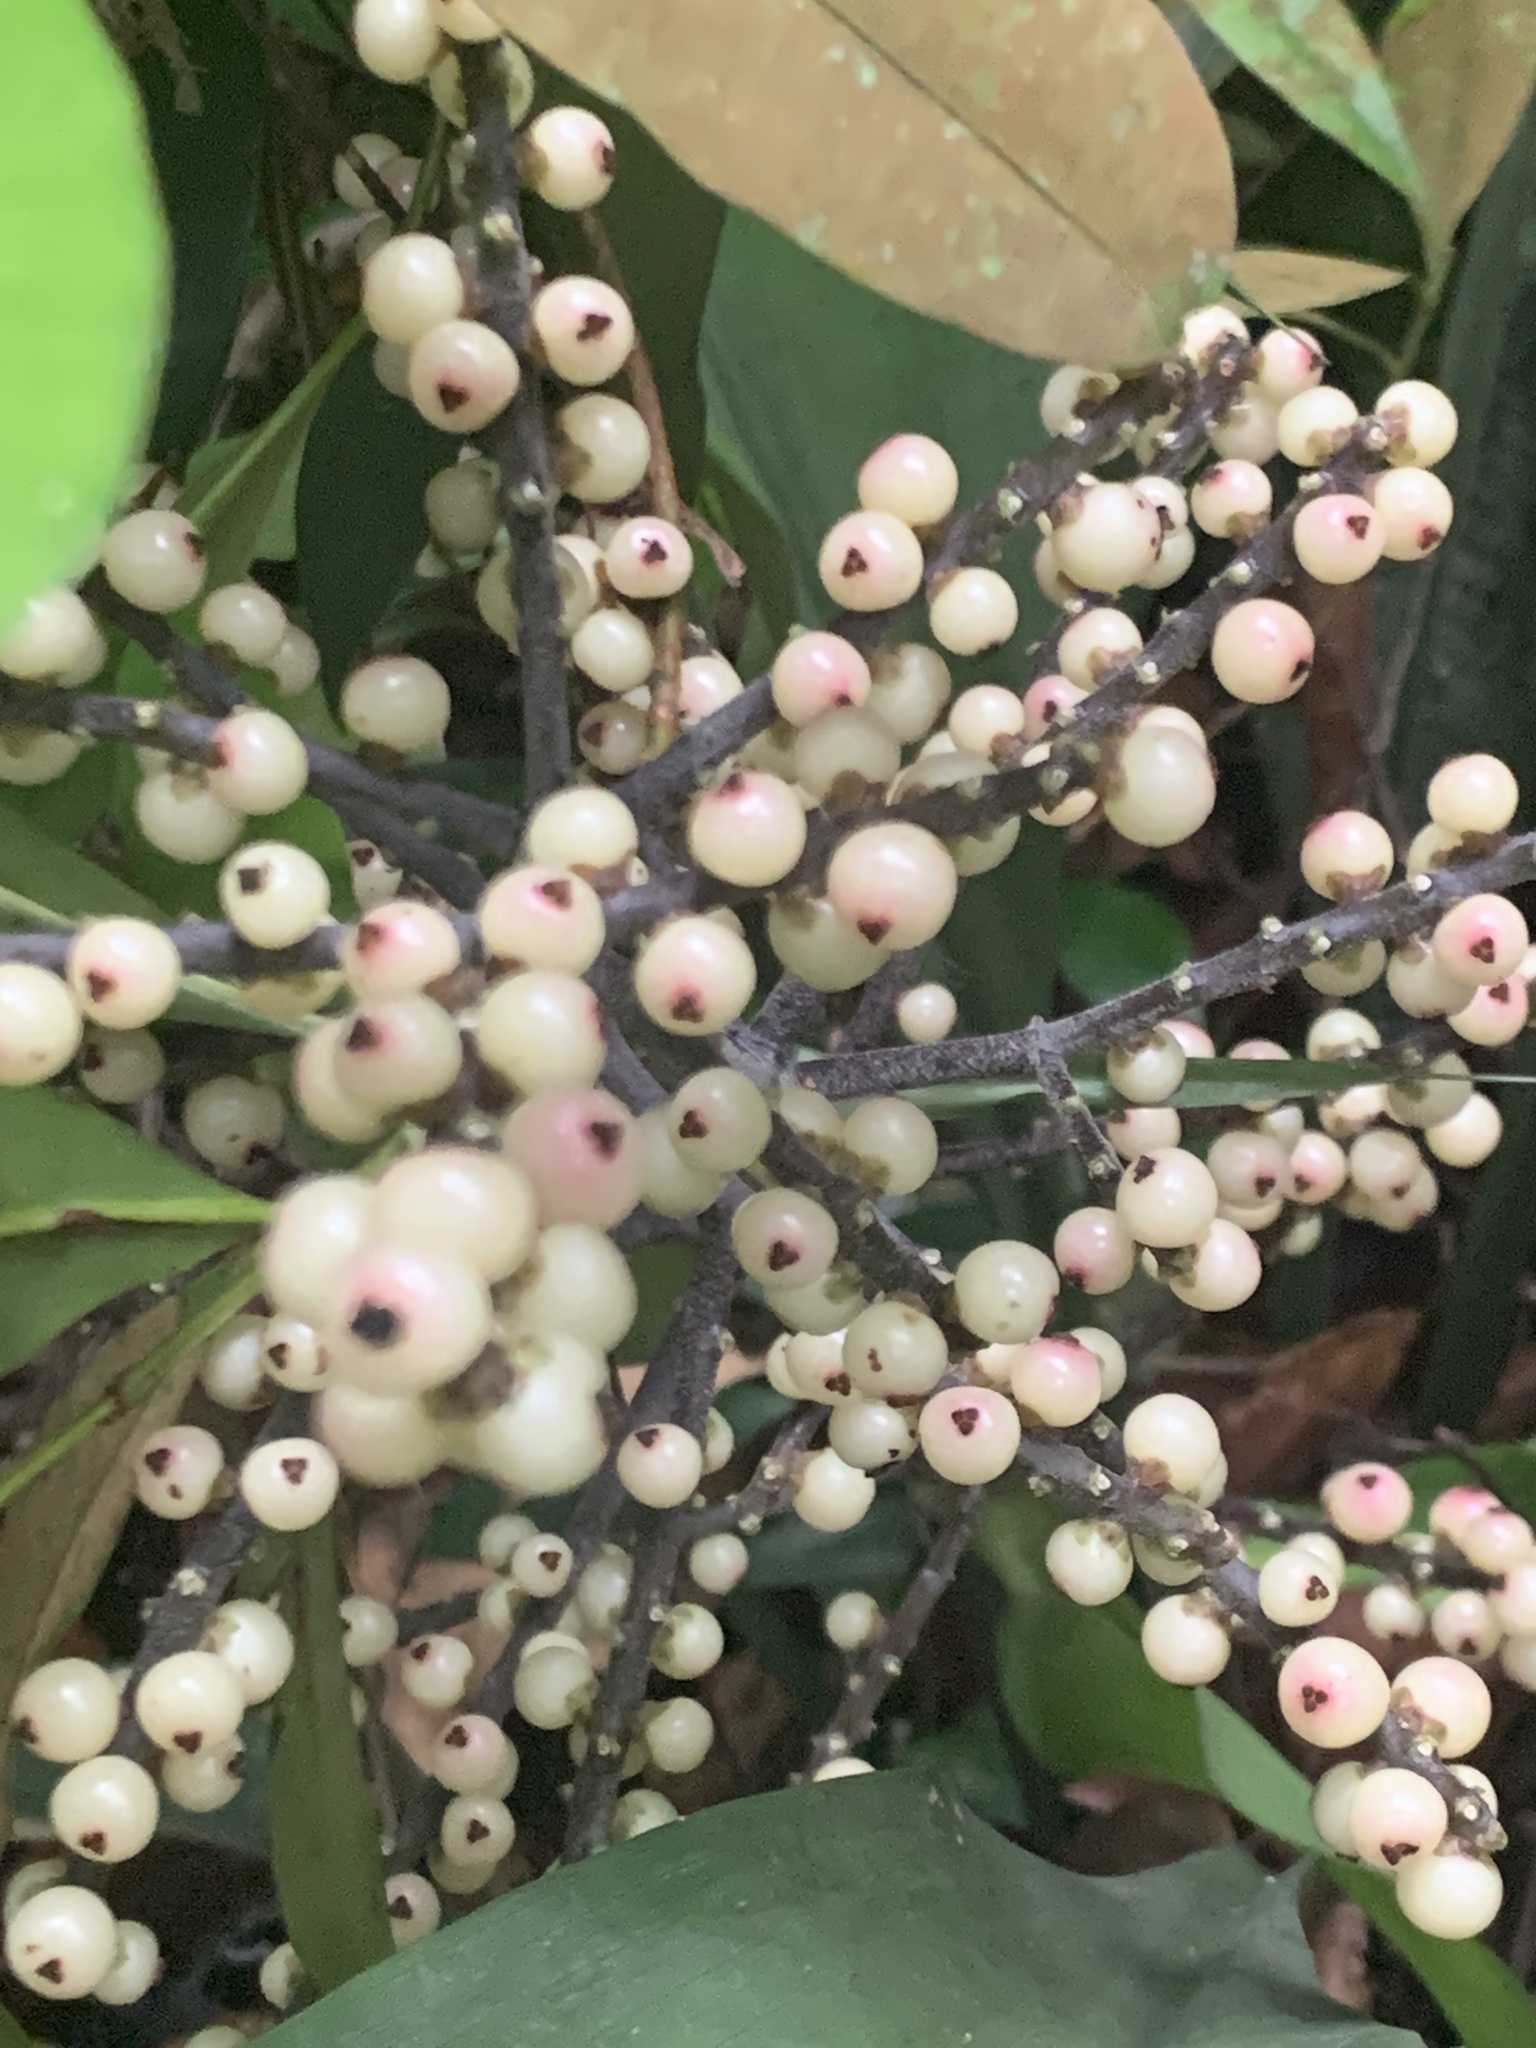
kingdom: Plantae
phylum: Tracheophyta
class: Liliopsida
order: Commelinales
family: Hanguanaceae
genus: Hanguana
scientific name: Hanguana rubinea
